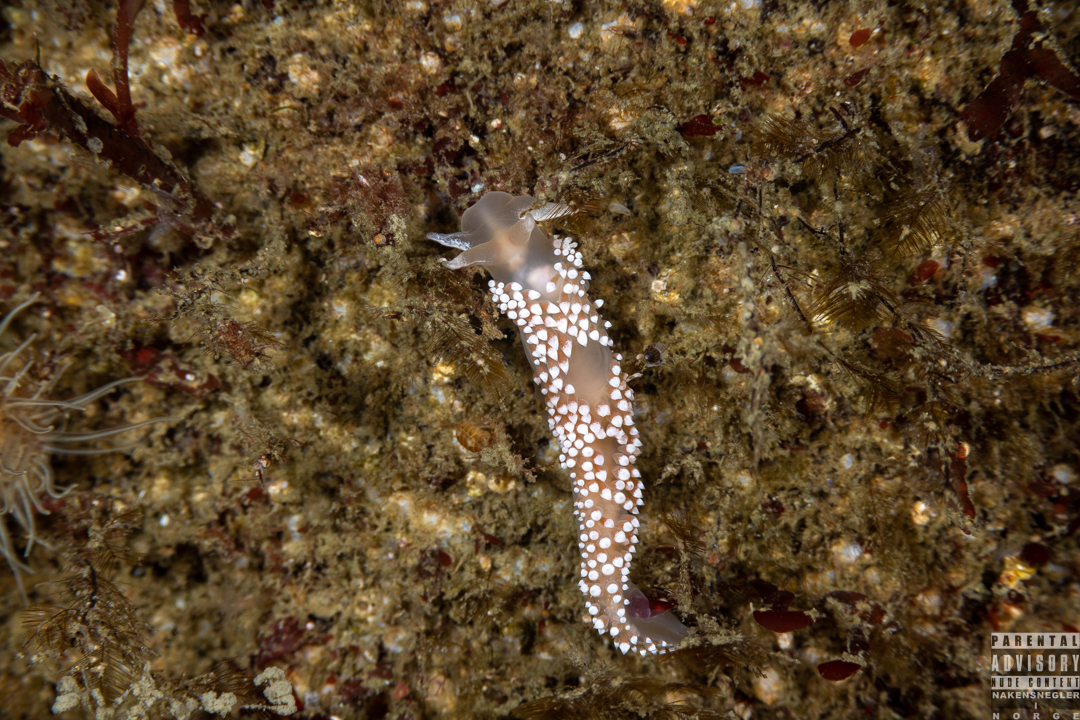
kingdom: Animalia
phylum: Mollusca
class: Gastropoda
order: Nudibranchia
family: Coryphellidae
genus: Coryphella
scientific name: Coryphella verrucosa
